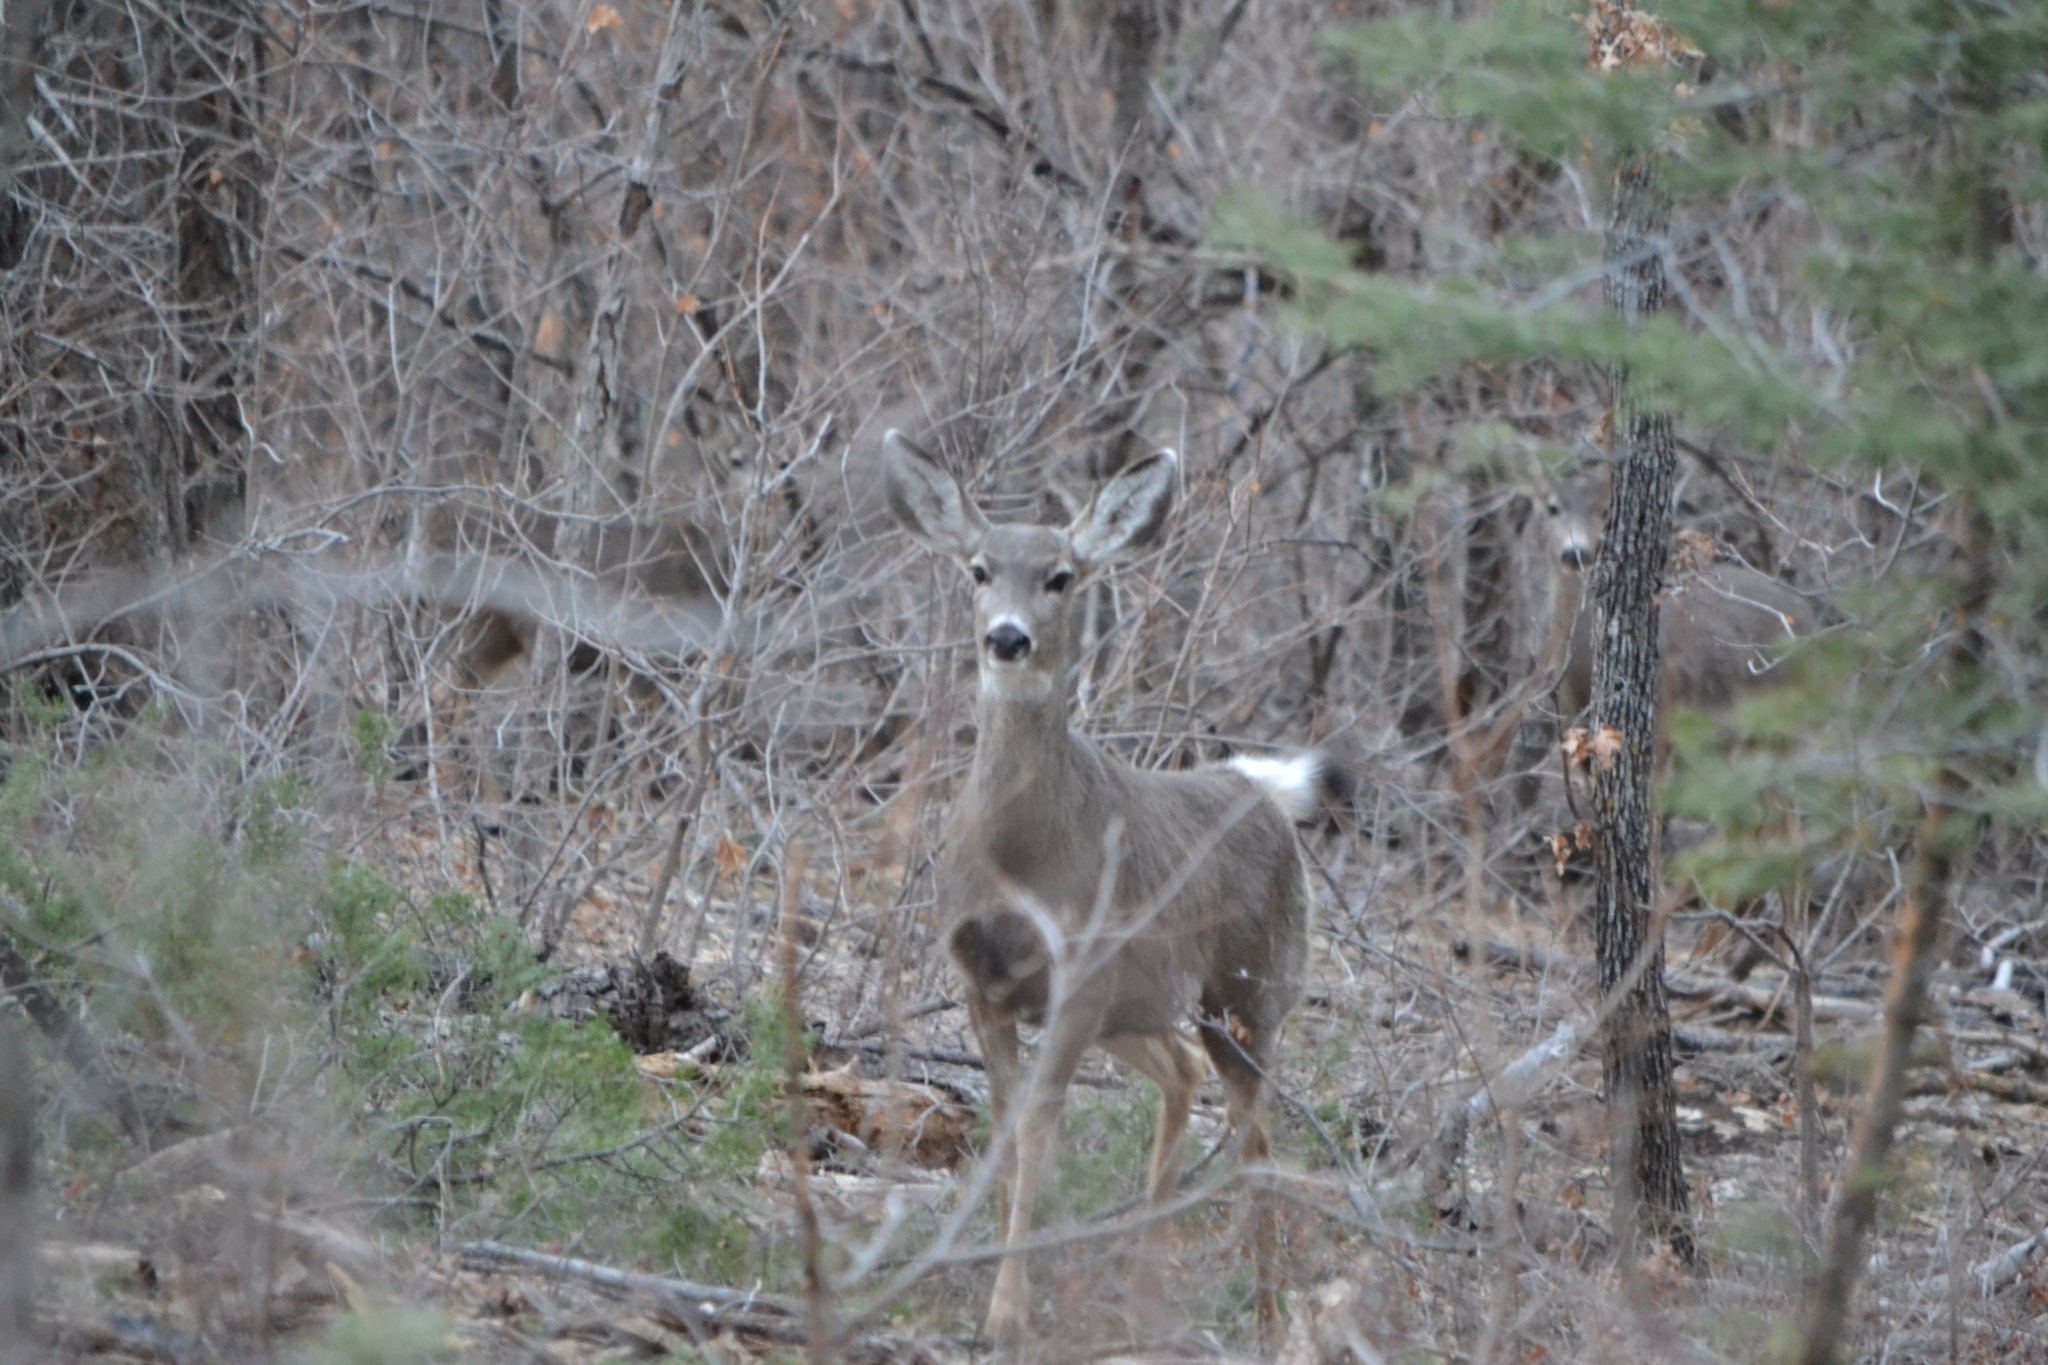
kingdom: Animalia
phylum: Chordata
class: Mammalia
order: Artiodactyla
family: Cervidae
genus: Odocoileus
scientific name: Odocoileus hemionus
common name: Mule deer
